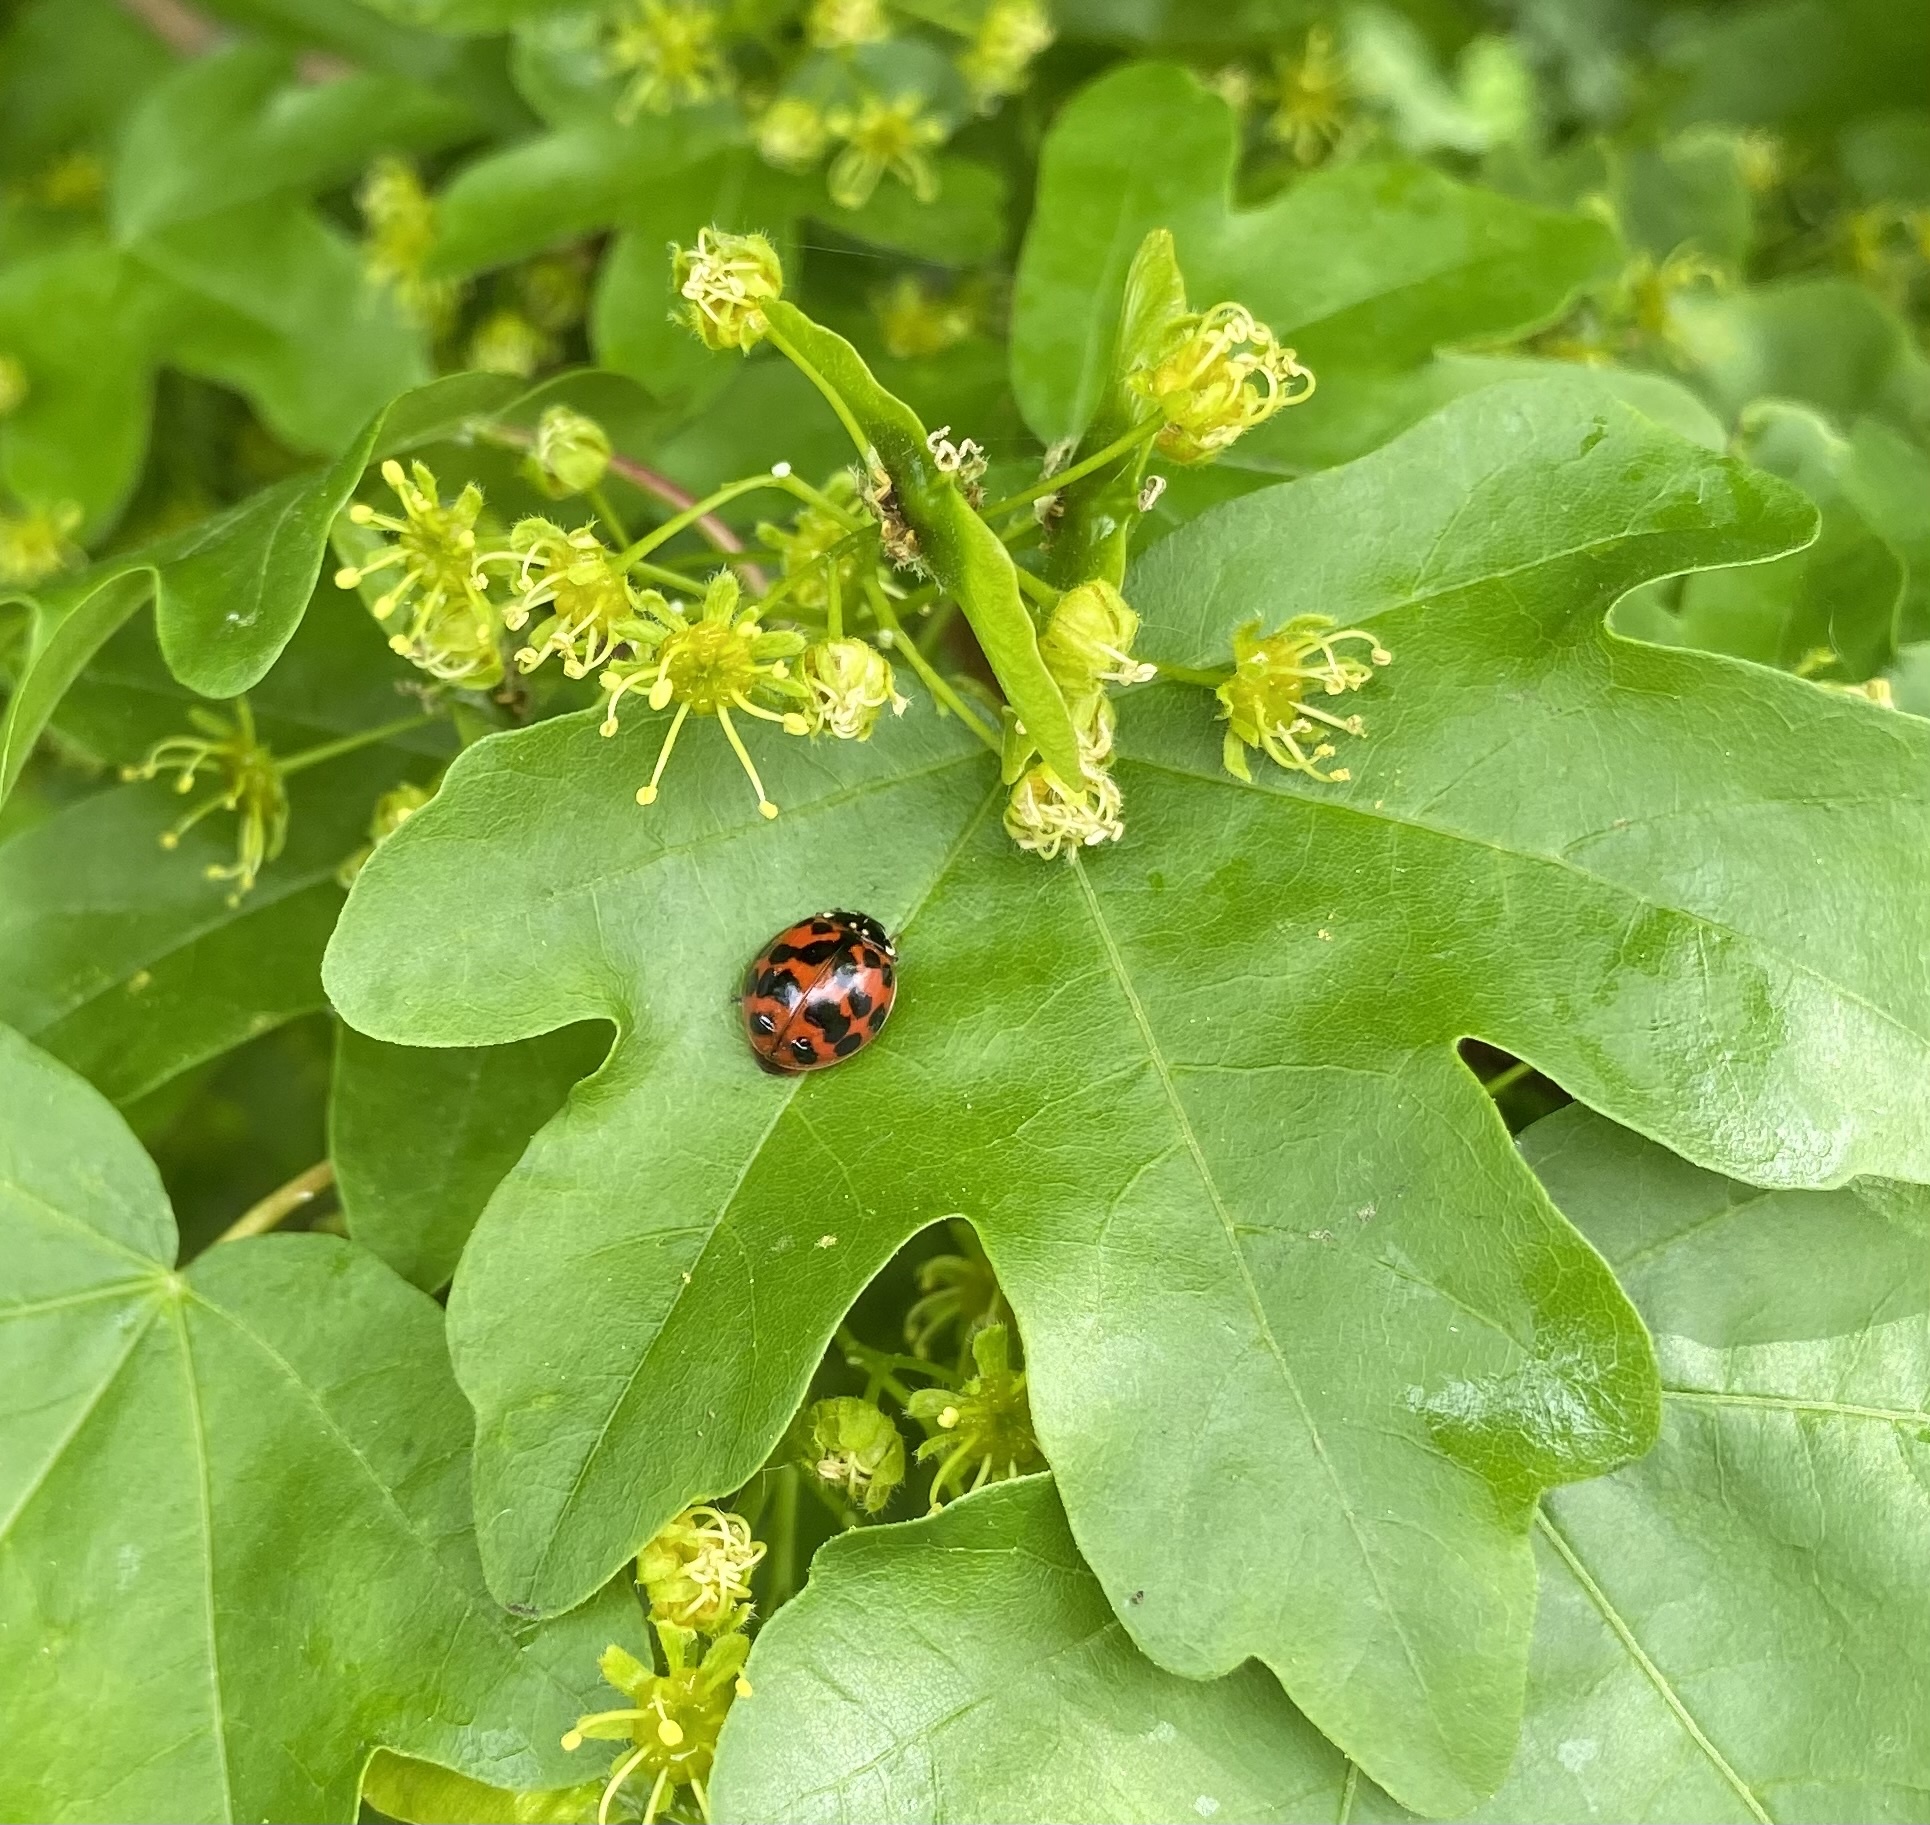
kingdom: Animalia
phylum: Arthropoda
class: Insecta
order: Coleoptera
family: Coccinellidae
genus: Harmonia
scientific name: Harmonia axyridis
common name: Harlequin ladybird
